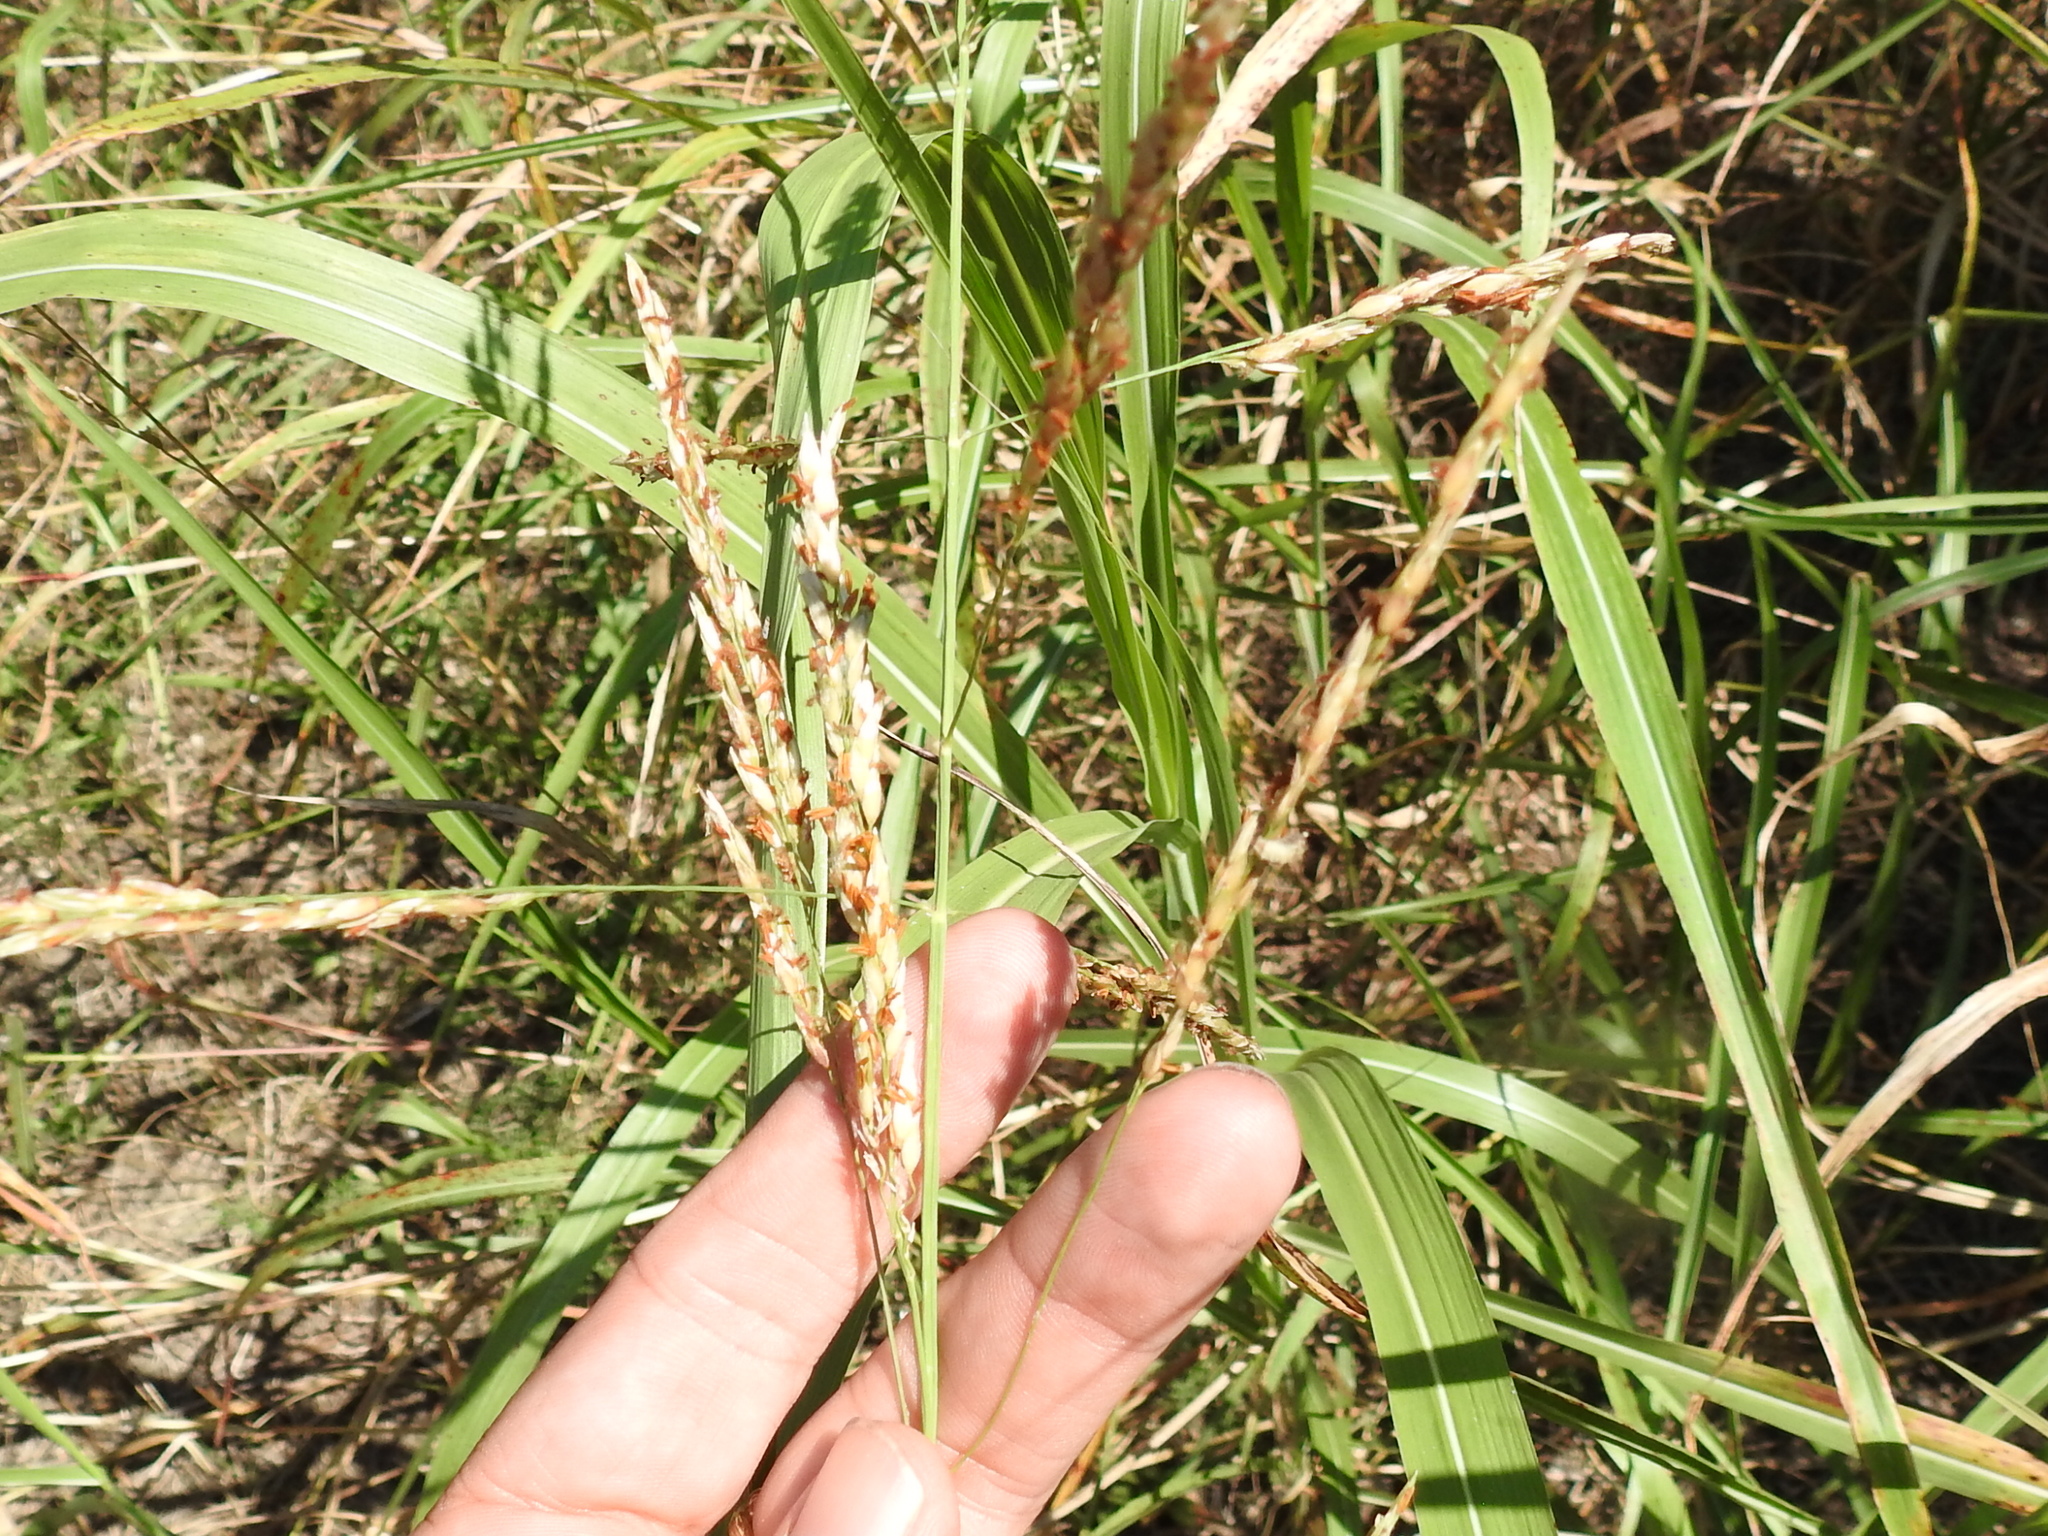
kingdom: Plantae
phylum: Tracheophyta
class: Liliopsida
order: Poales
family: Poaceae
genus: Sorghum
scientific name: Sorghum halepense
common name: Johnson-grass
